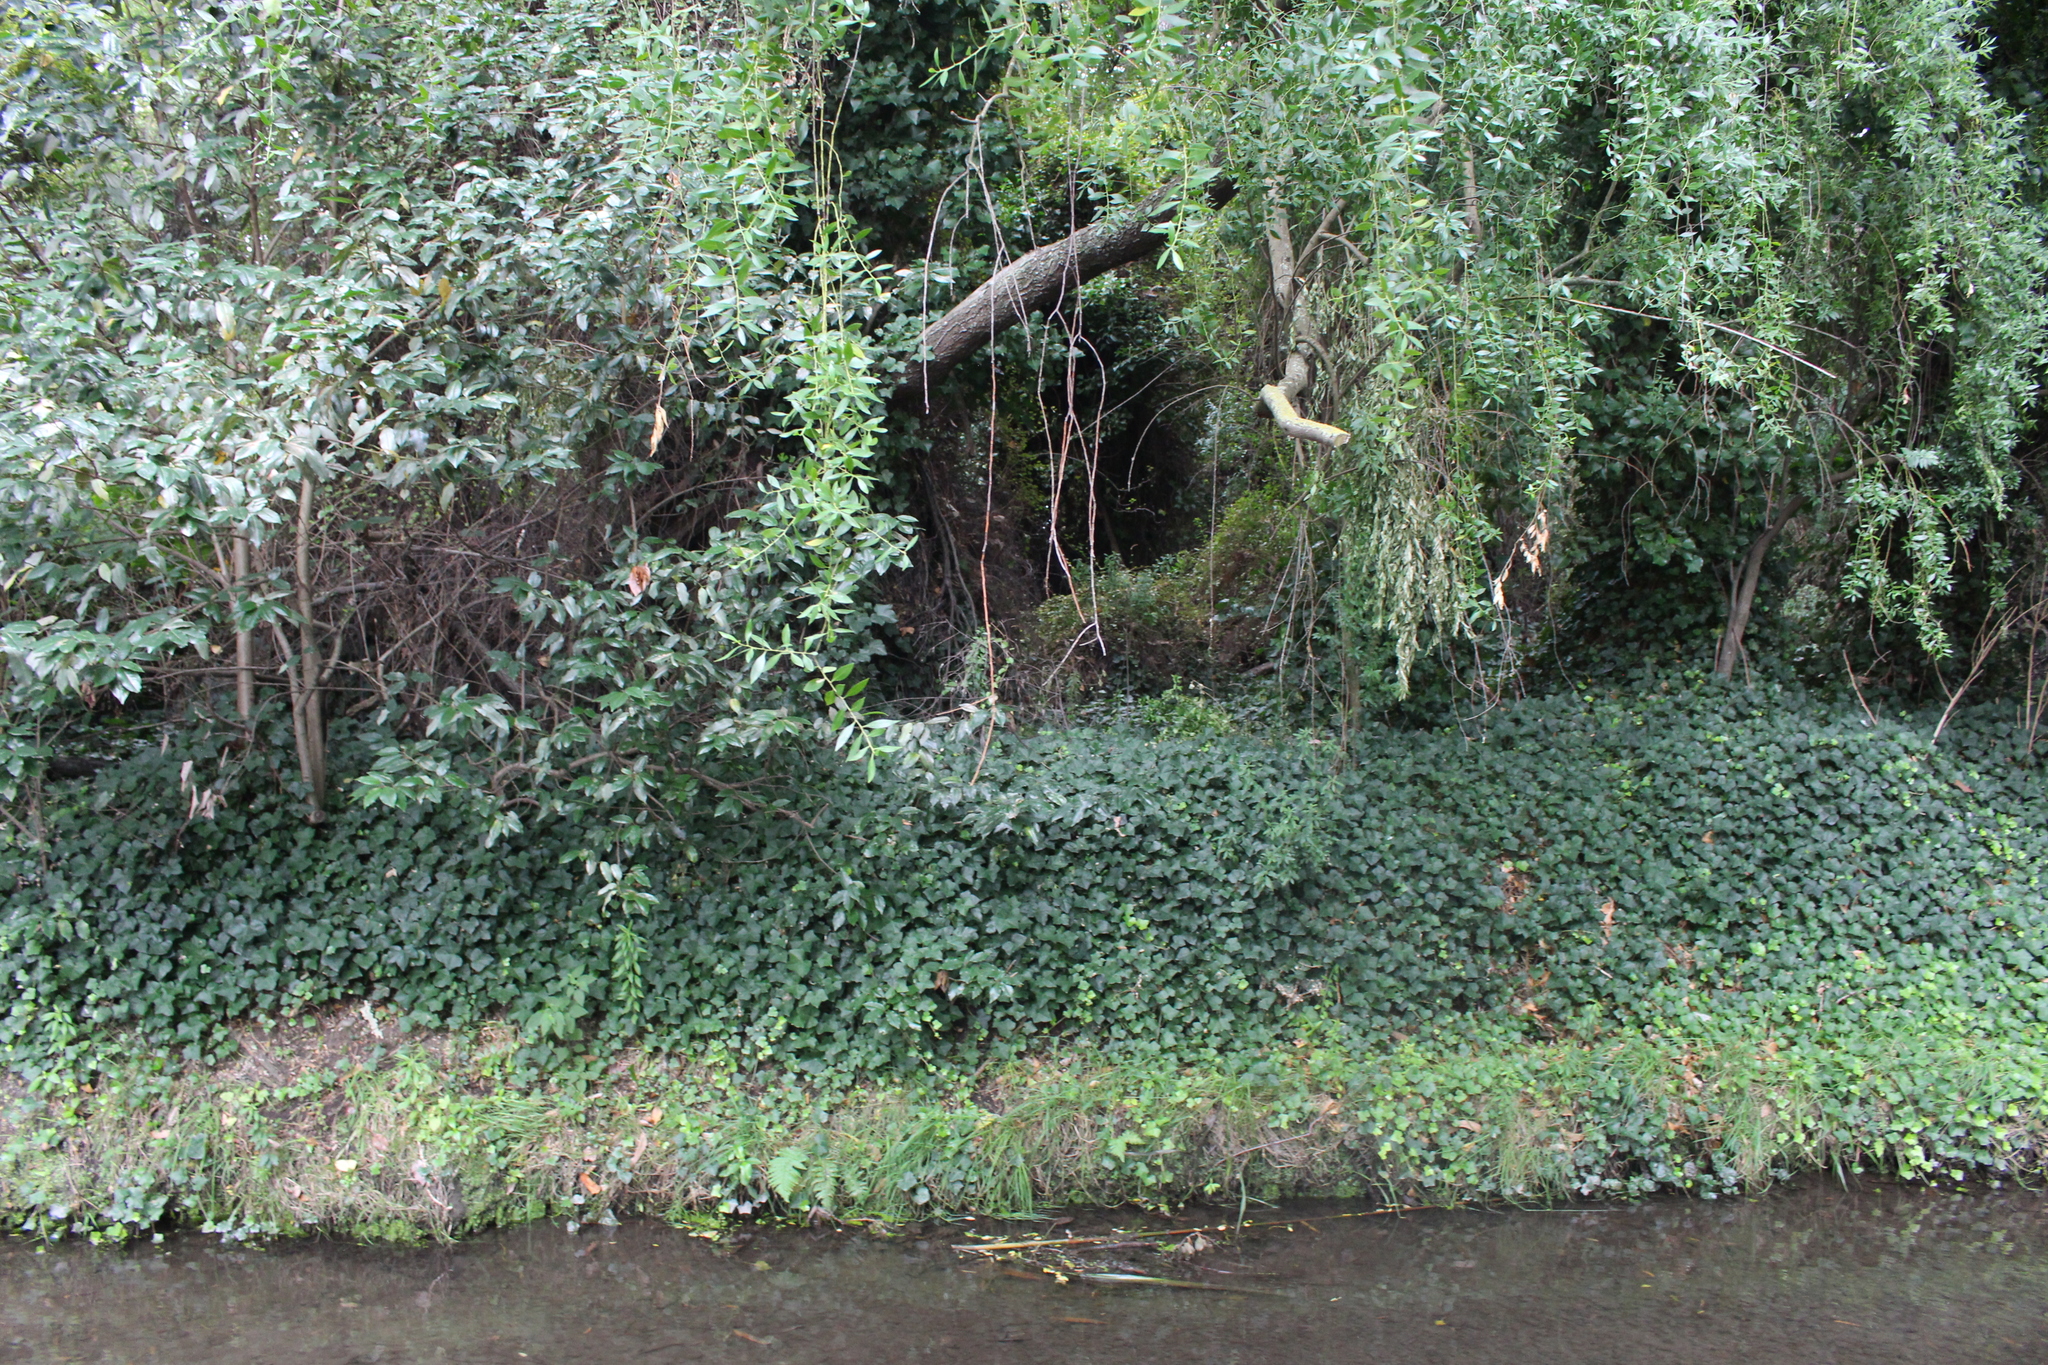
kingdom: Plantae
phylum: Tracheophyta
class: Magnoliopsida
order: Apiales
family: Araliaceae
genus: Hedera
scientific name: Hedera helix
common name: Ivy
